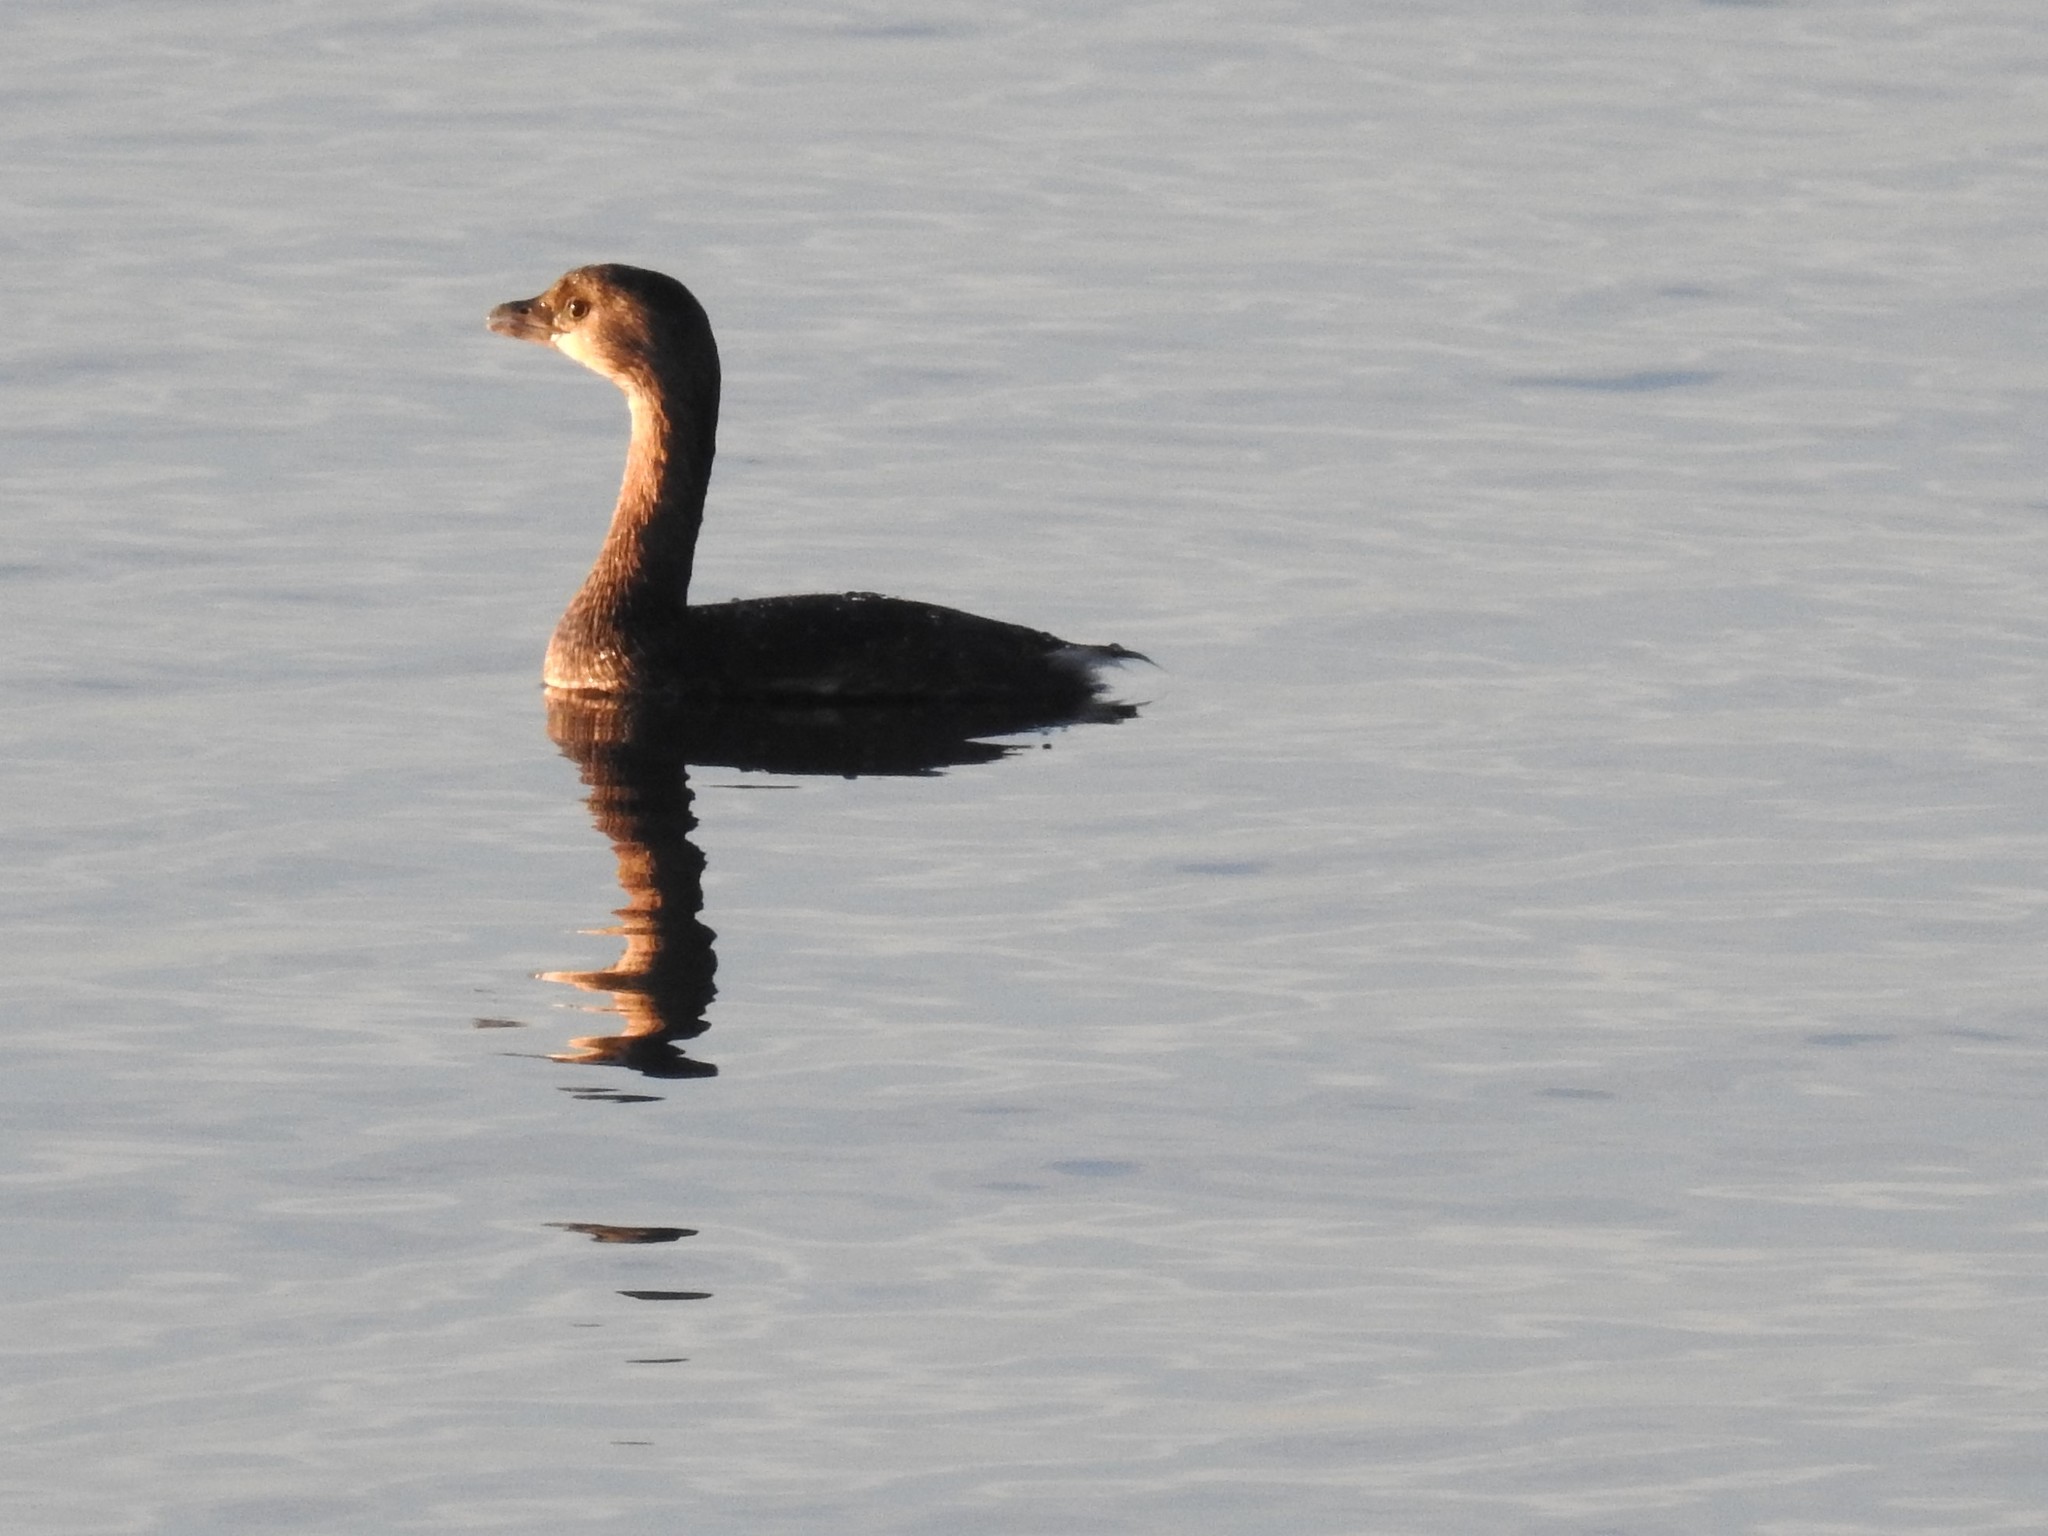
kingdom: Animalia
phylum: Chordata
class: Aves
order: Podicipediformes
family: Podicipedidae
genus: Podilymbus
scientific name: Podilymbus podiceps
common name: Pied-billed grebe
